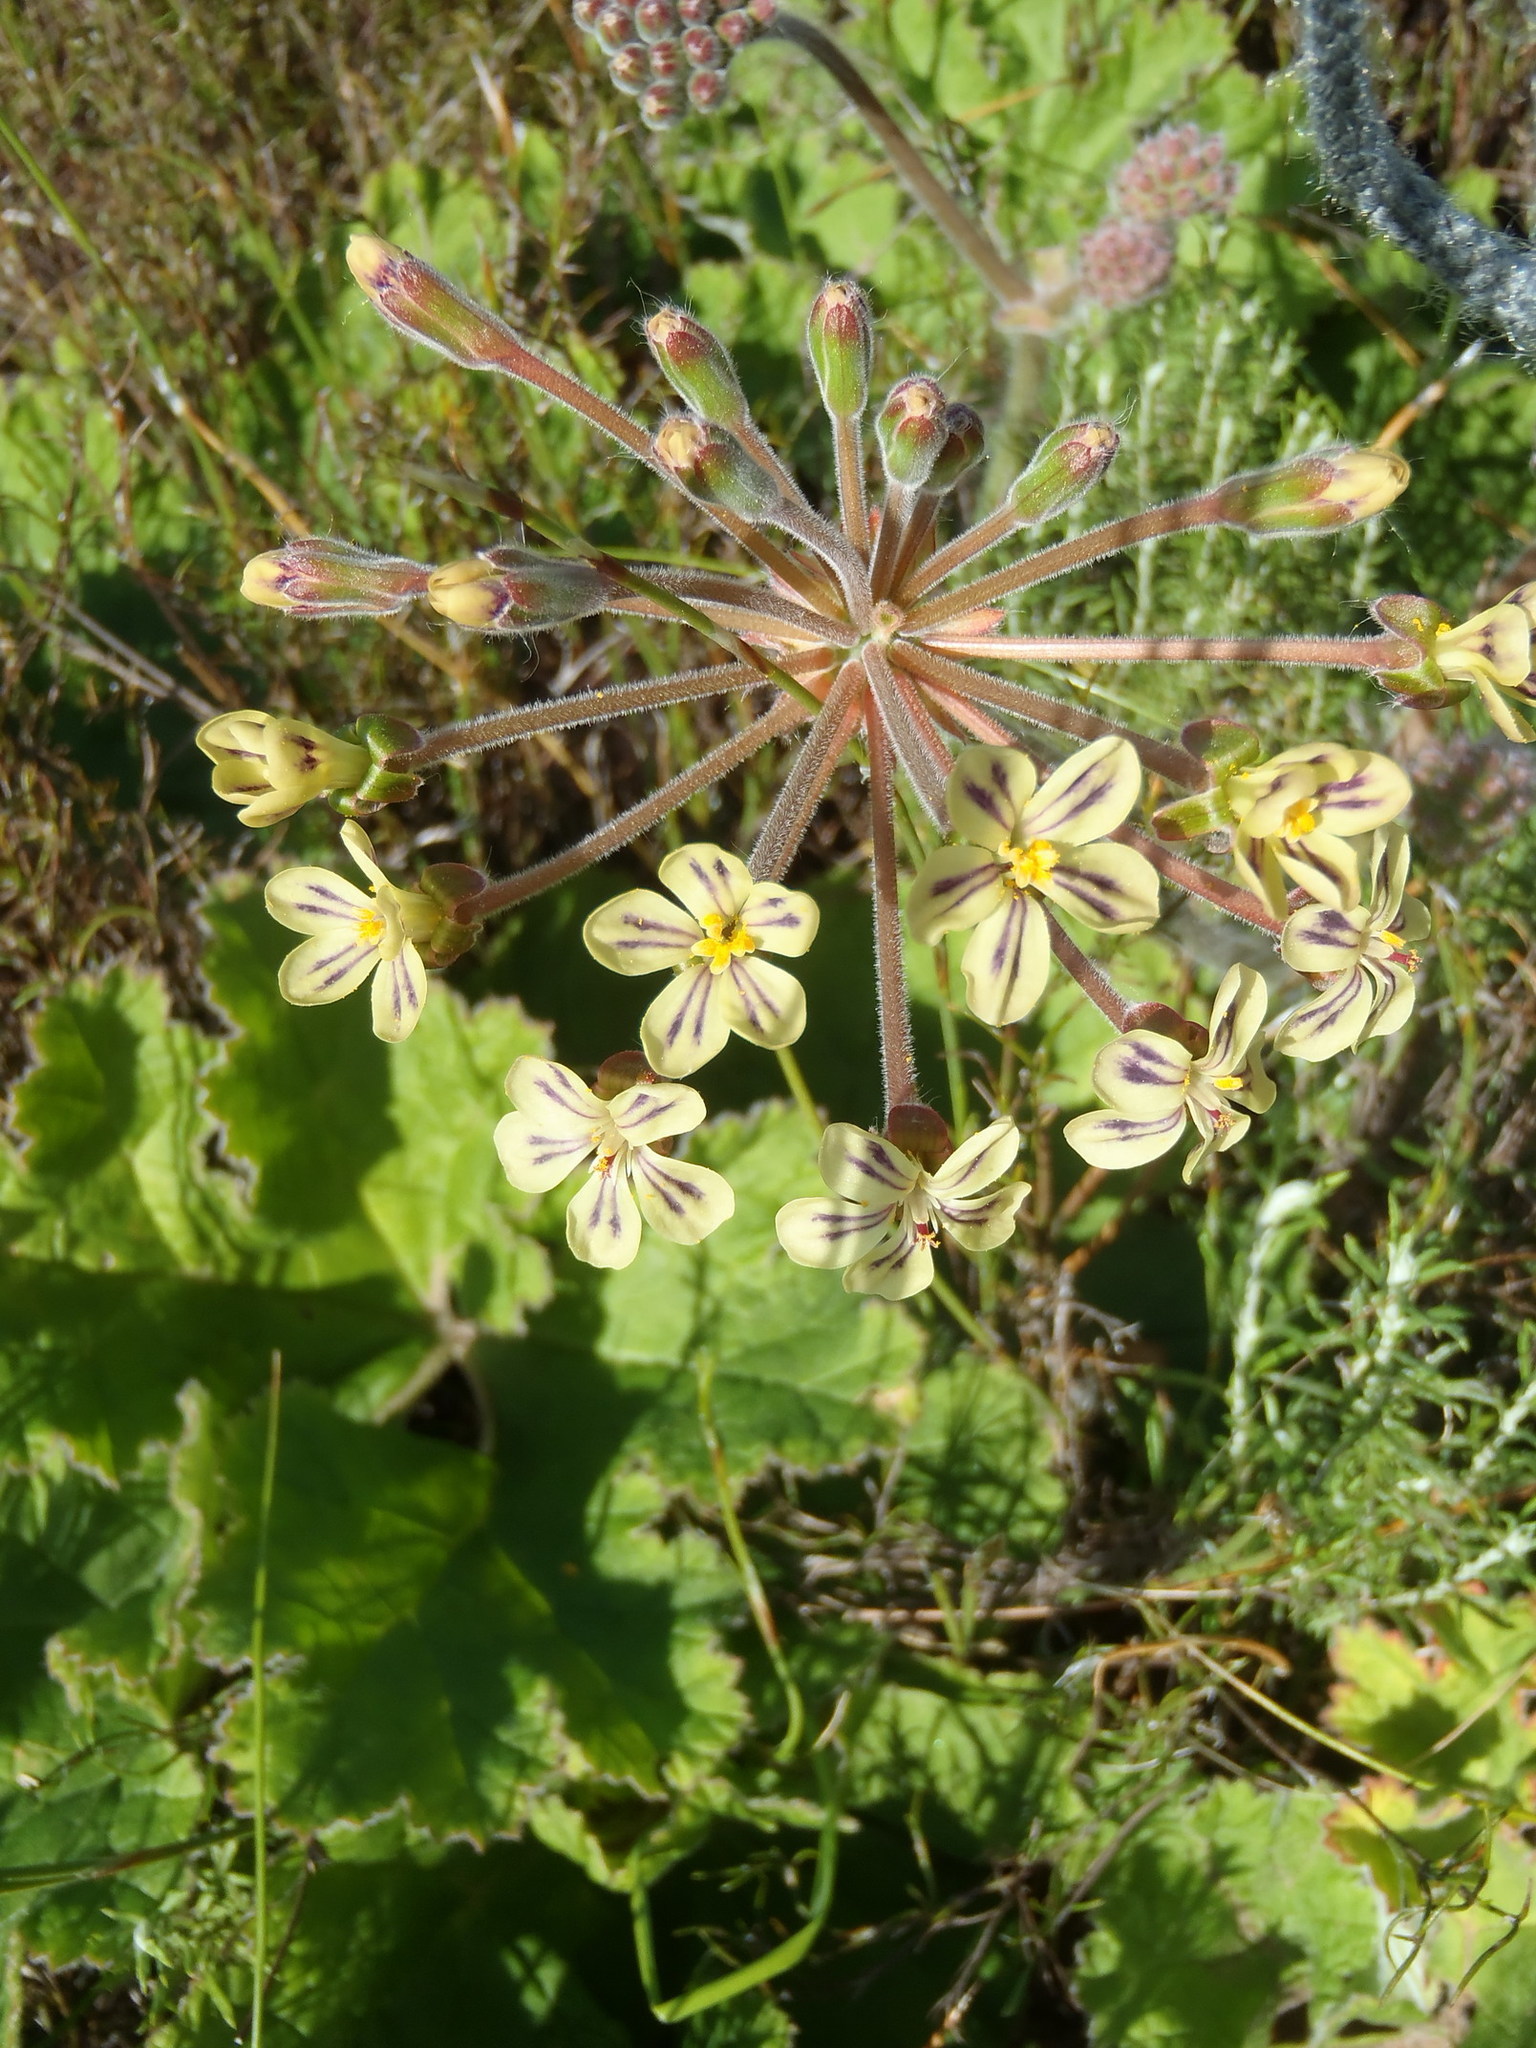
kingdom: Plantae
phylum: Tracheophyta
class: Magnoliopsida
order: Geraniales
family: Geraniaceae
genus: Pelargonium
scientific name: Pelargonium lobatum
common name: Vine-leaf pelargonium
